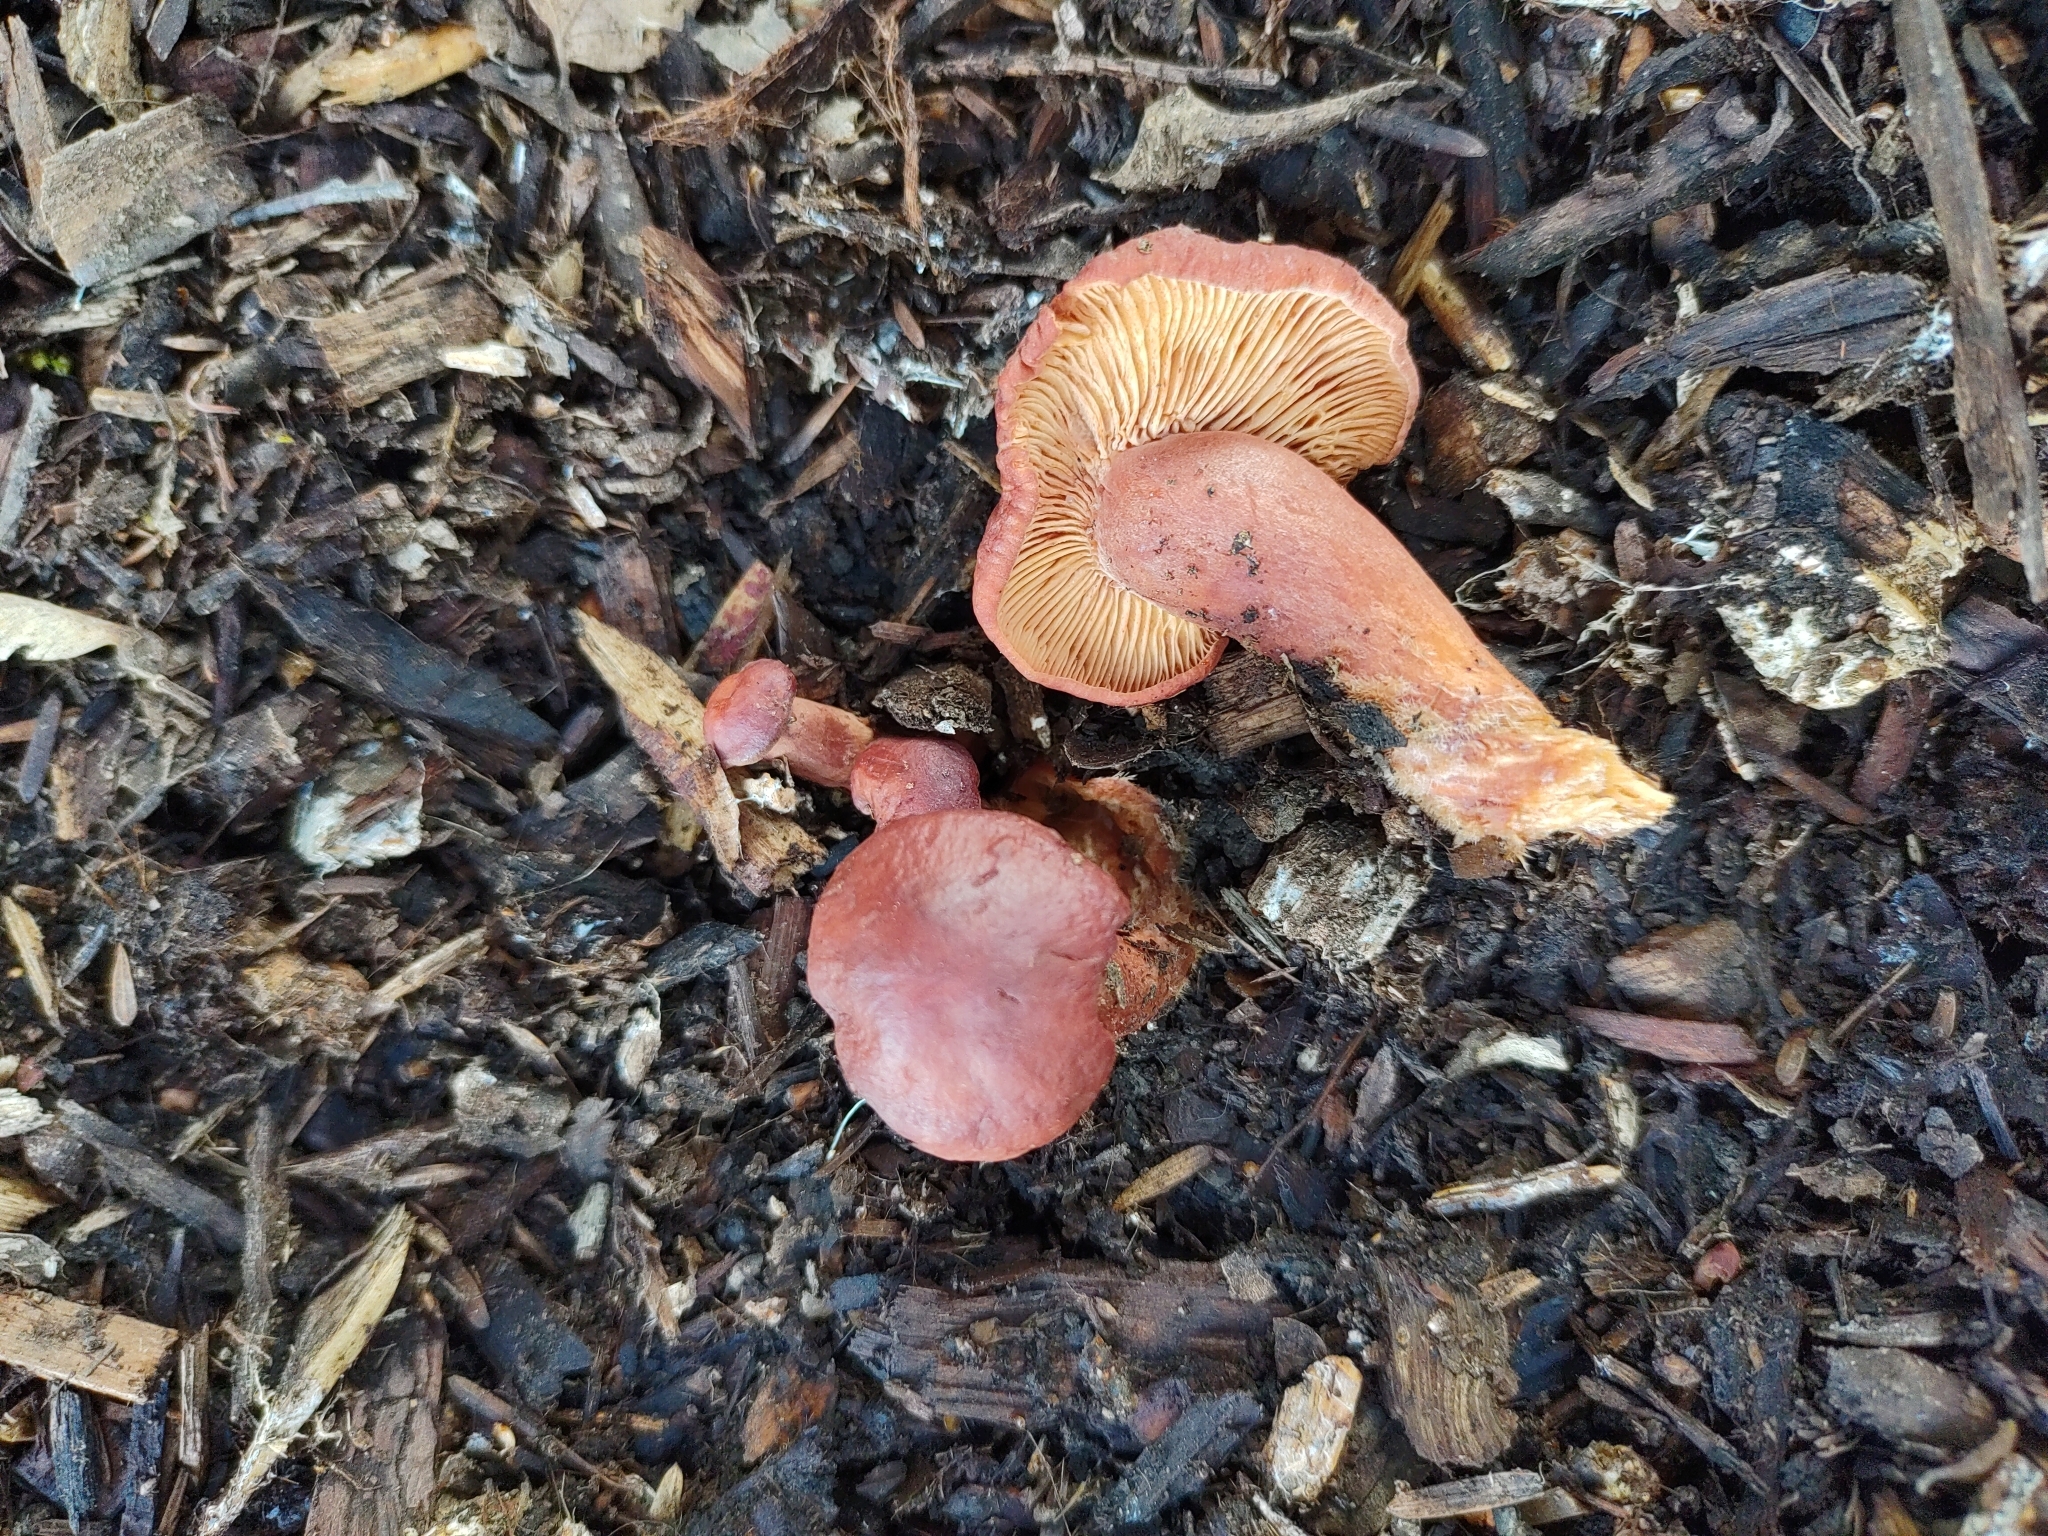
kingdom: Fungi
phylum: Basidiomycota
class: Agaricomycetes
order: Russulales
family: Russulaceae
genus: Lactarius
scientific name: Lactarius rufulus
